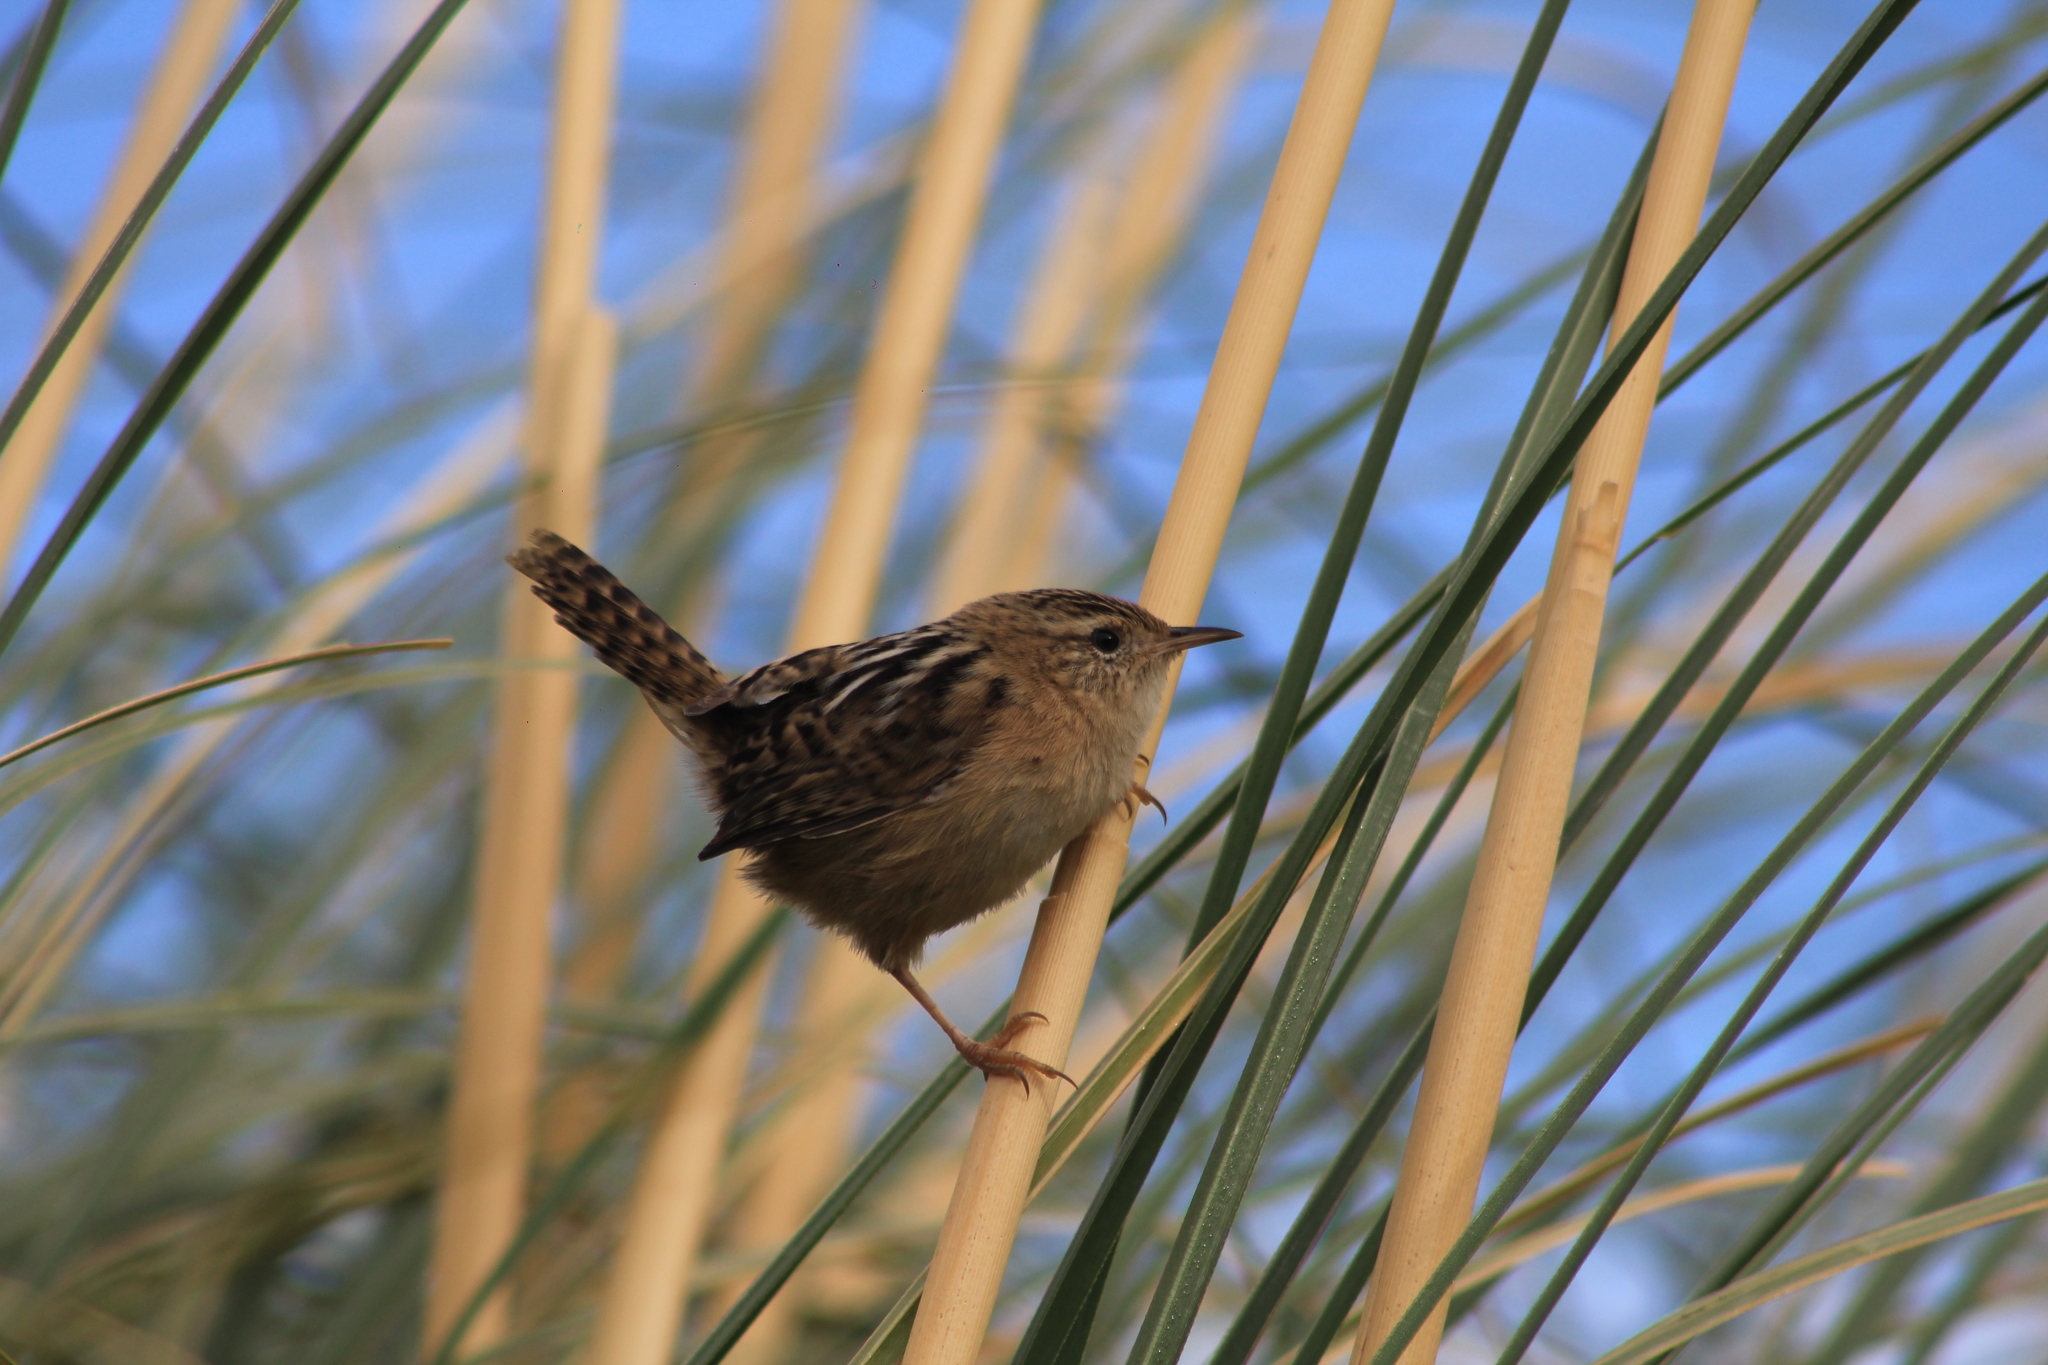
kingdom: Animalia
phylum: Chordata
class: Aves
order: Passeriformes
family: Troglodytidae
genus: Cistothorus
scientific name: Cistothorus platensis
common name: Sedge wren
